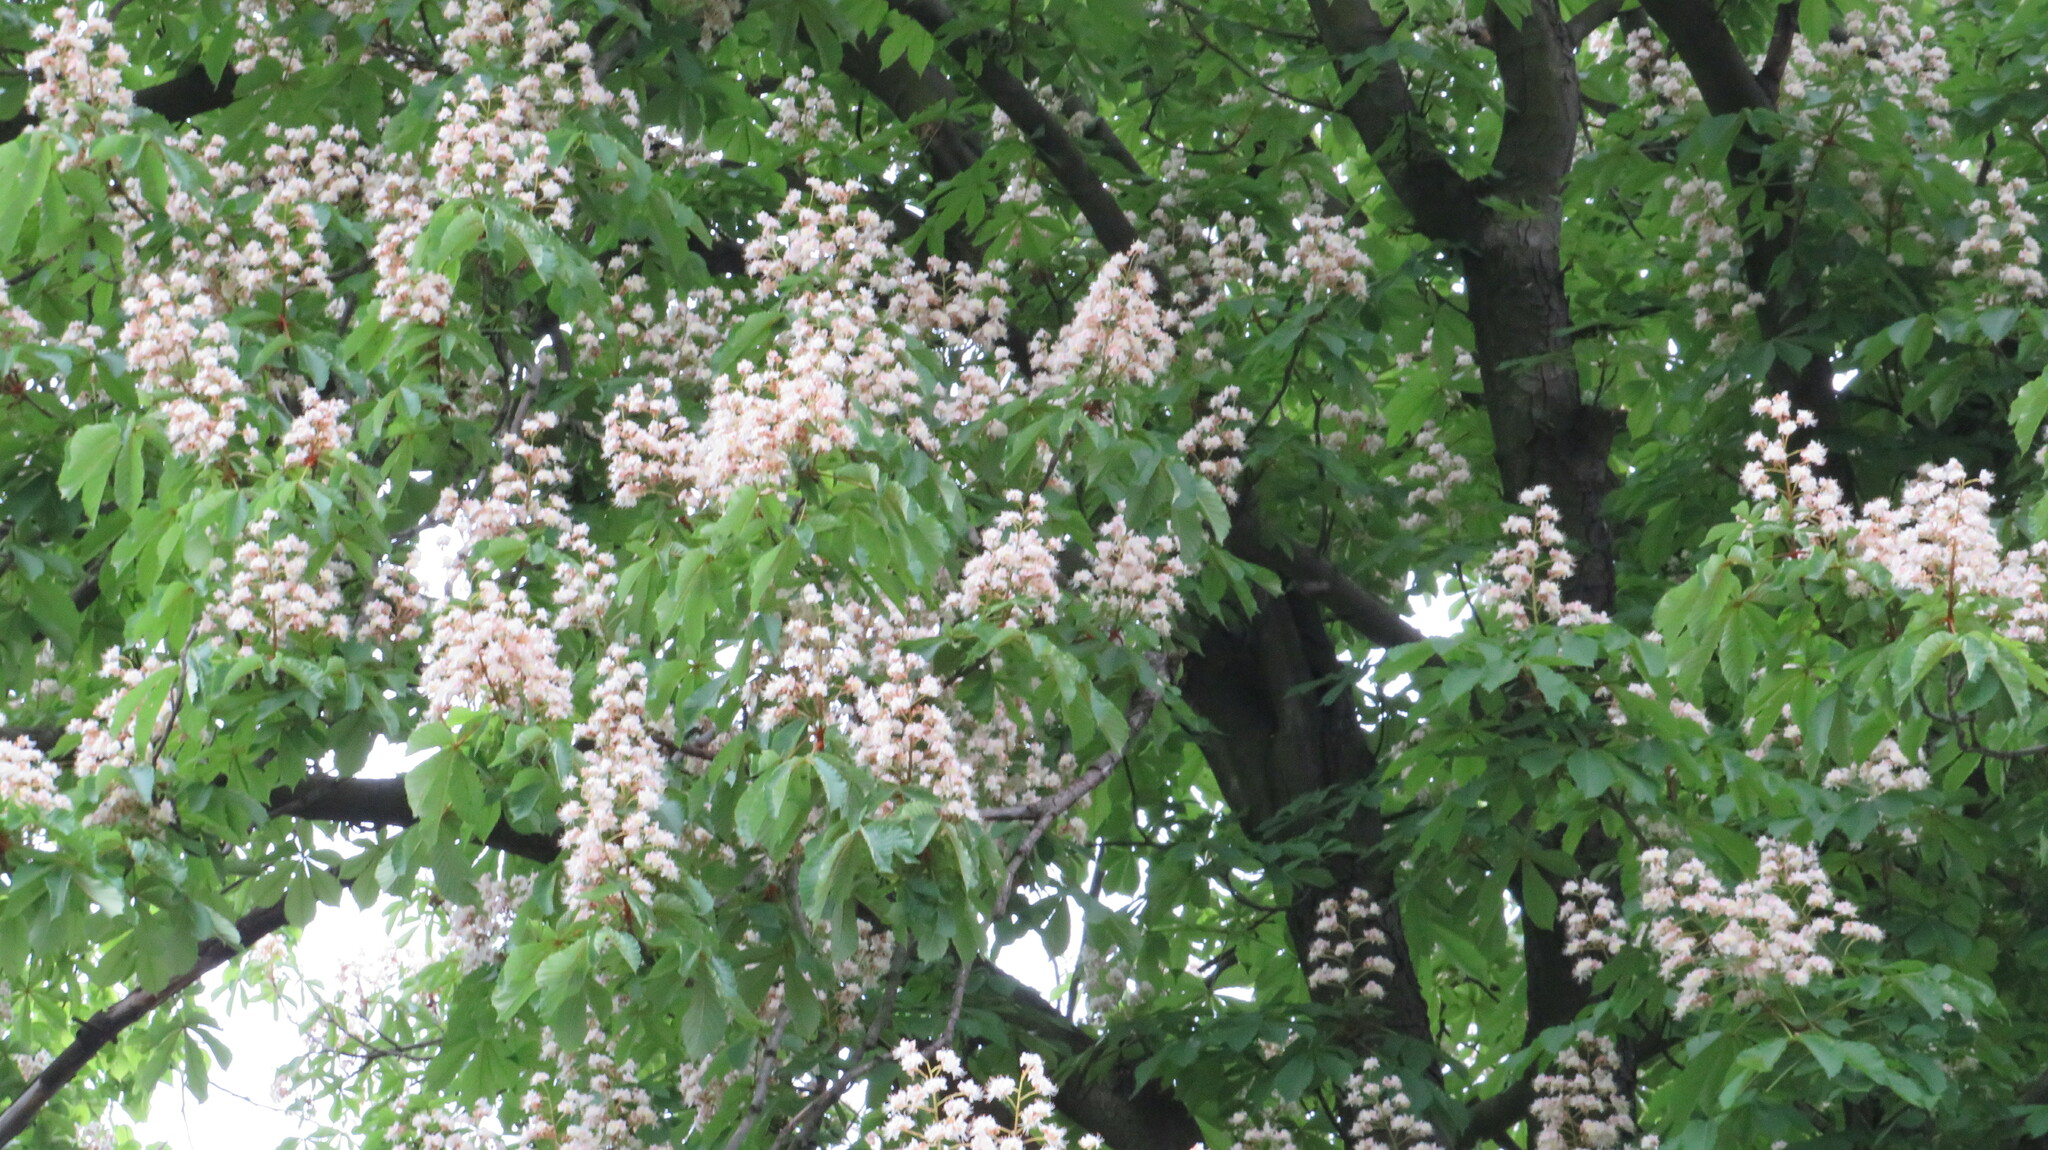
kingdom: Plantae
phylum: Tracheophyta
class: Magnoliopsida
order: Sapindales
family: Sapindaceae
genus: Aesculus
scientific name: Aesculus hippocastanum
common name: Horse-chestnut
